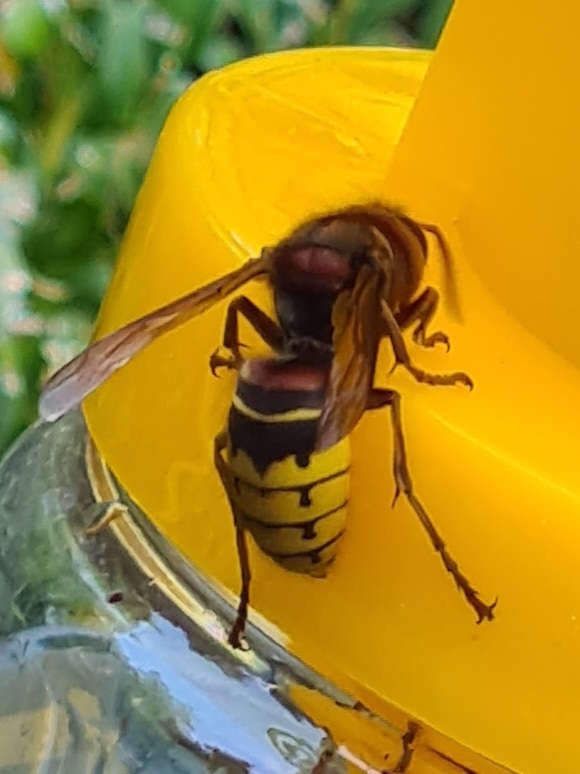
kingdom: Animalia
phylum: Arthropoda
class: Insecta
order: Hymenoptera
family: Vespidae
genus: Vespa
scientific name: Vespa crabro
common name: Hornet
